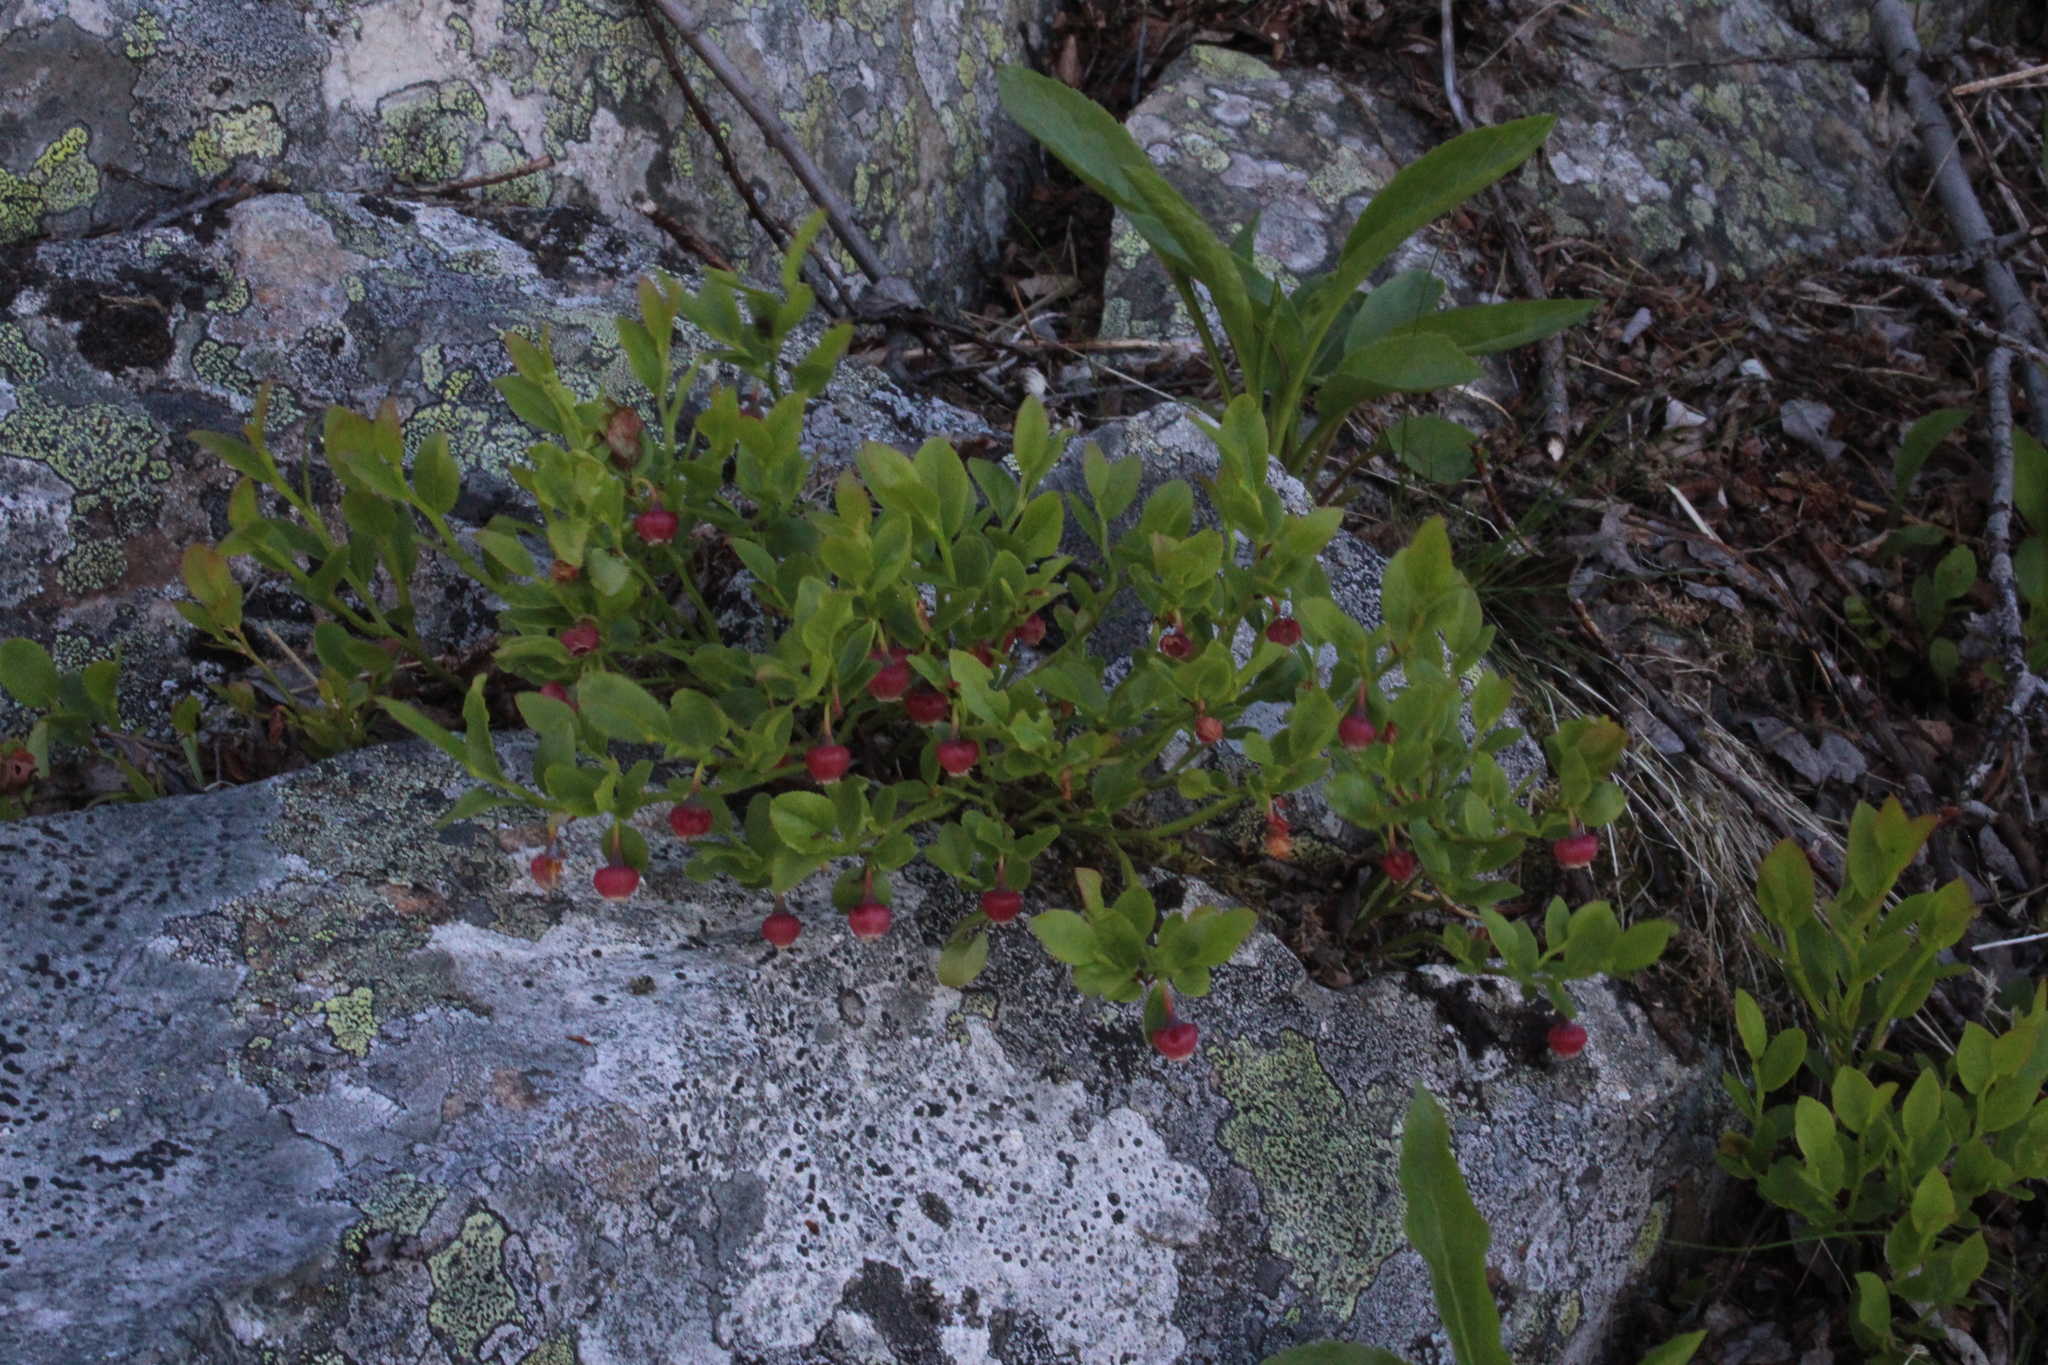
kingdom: Plantae
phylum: Tracheophyta
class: Magnoliopsida
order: Ericales
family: Ericaceae
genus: Vaccinium
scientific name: Vaccinium myrtillus
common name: Bilberry
